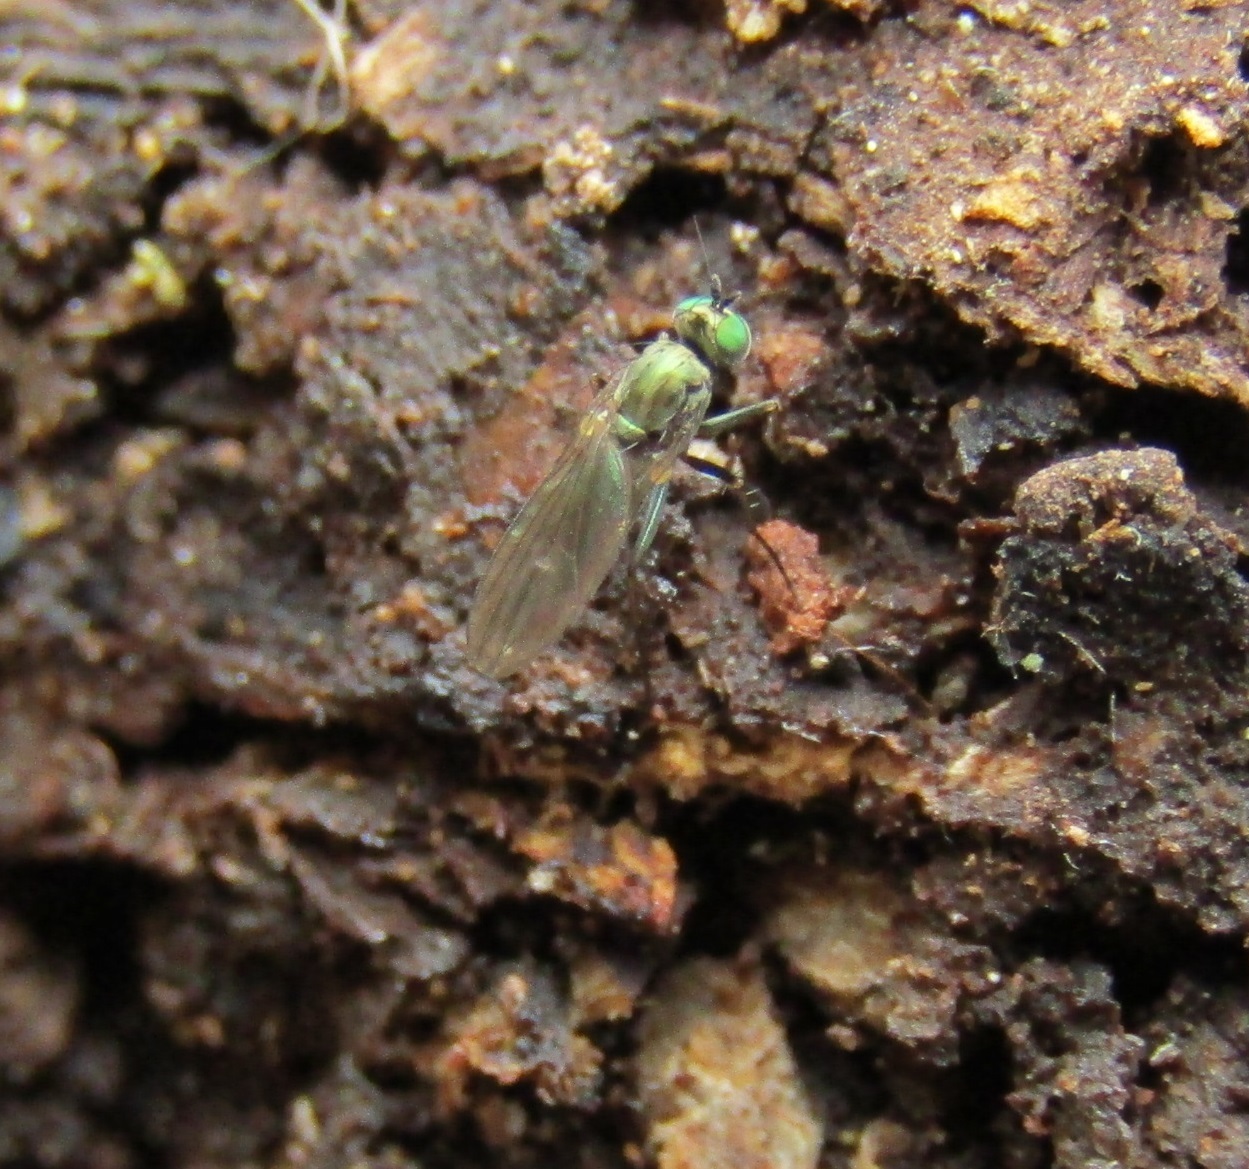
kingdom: Animalia
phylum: Arthropoda
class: Insecta
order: Diptera
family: Dolichopodidae
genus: Micropygus
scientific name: Micropygus bipunctatus
